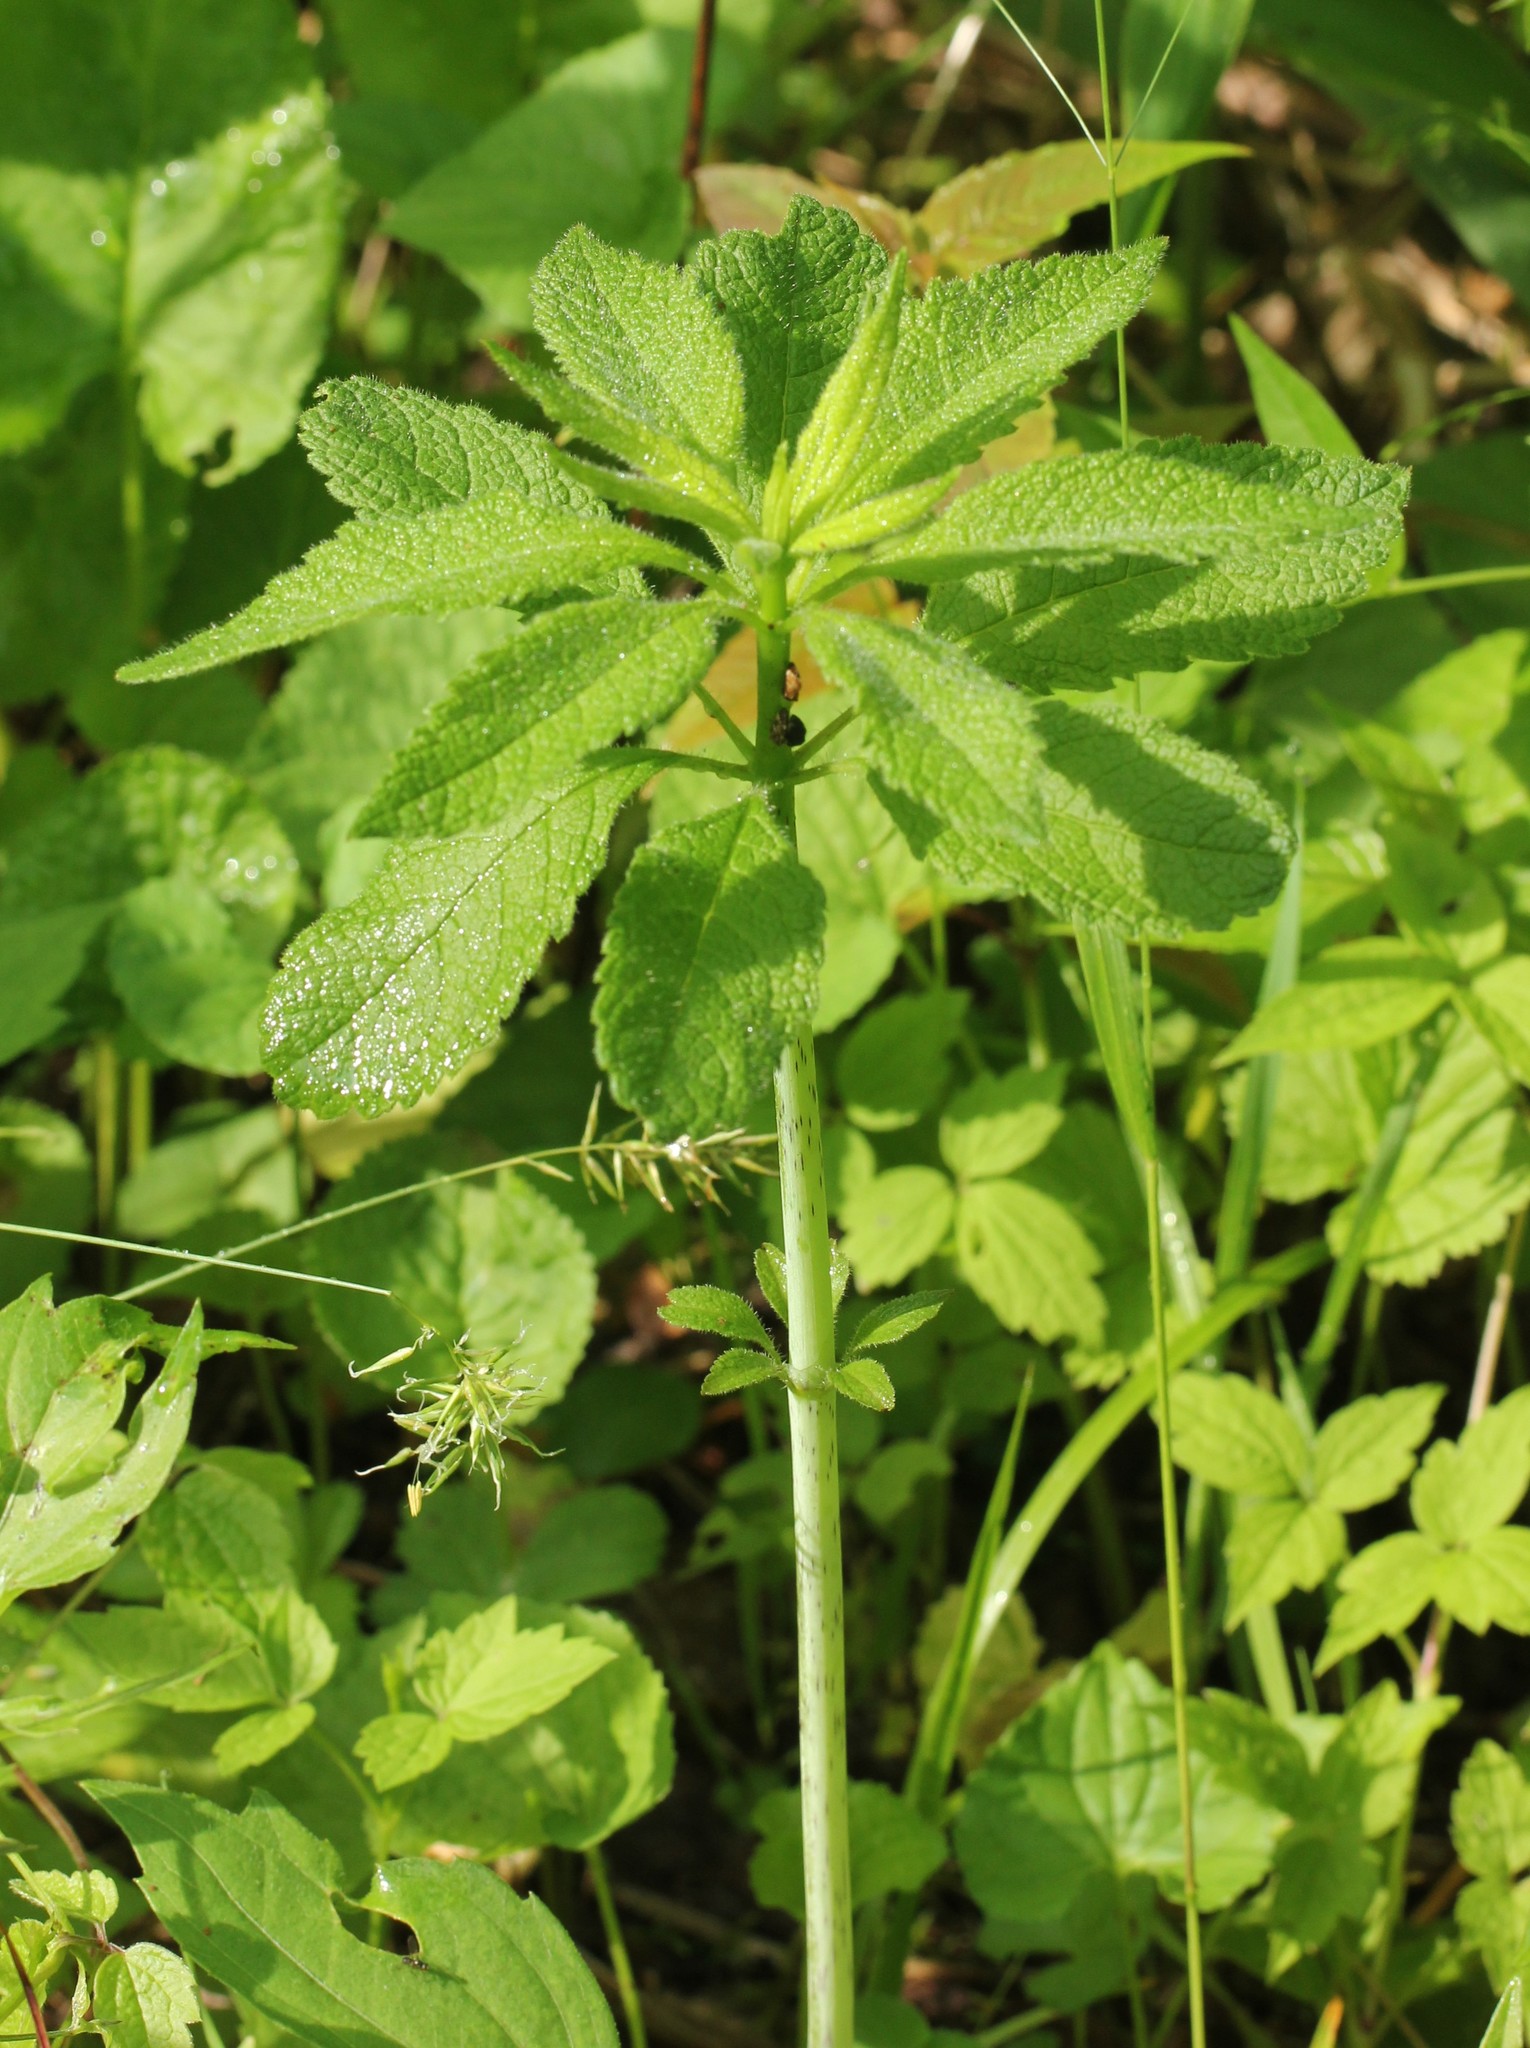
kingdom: Plantae
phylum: Tracheophyta
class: Magnoliopsida
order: Asterales
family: Asteraceae
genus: Eutrochium
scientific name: Eutrochium purpureum
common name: Gravelroot
